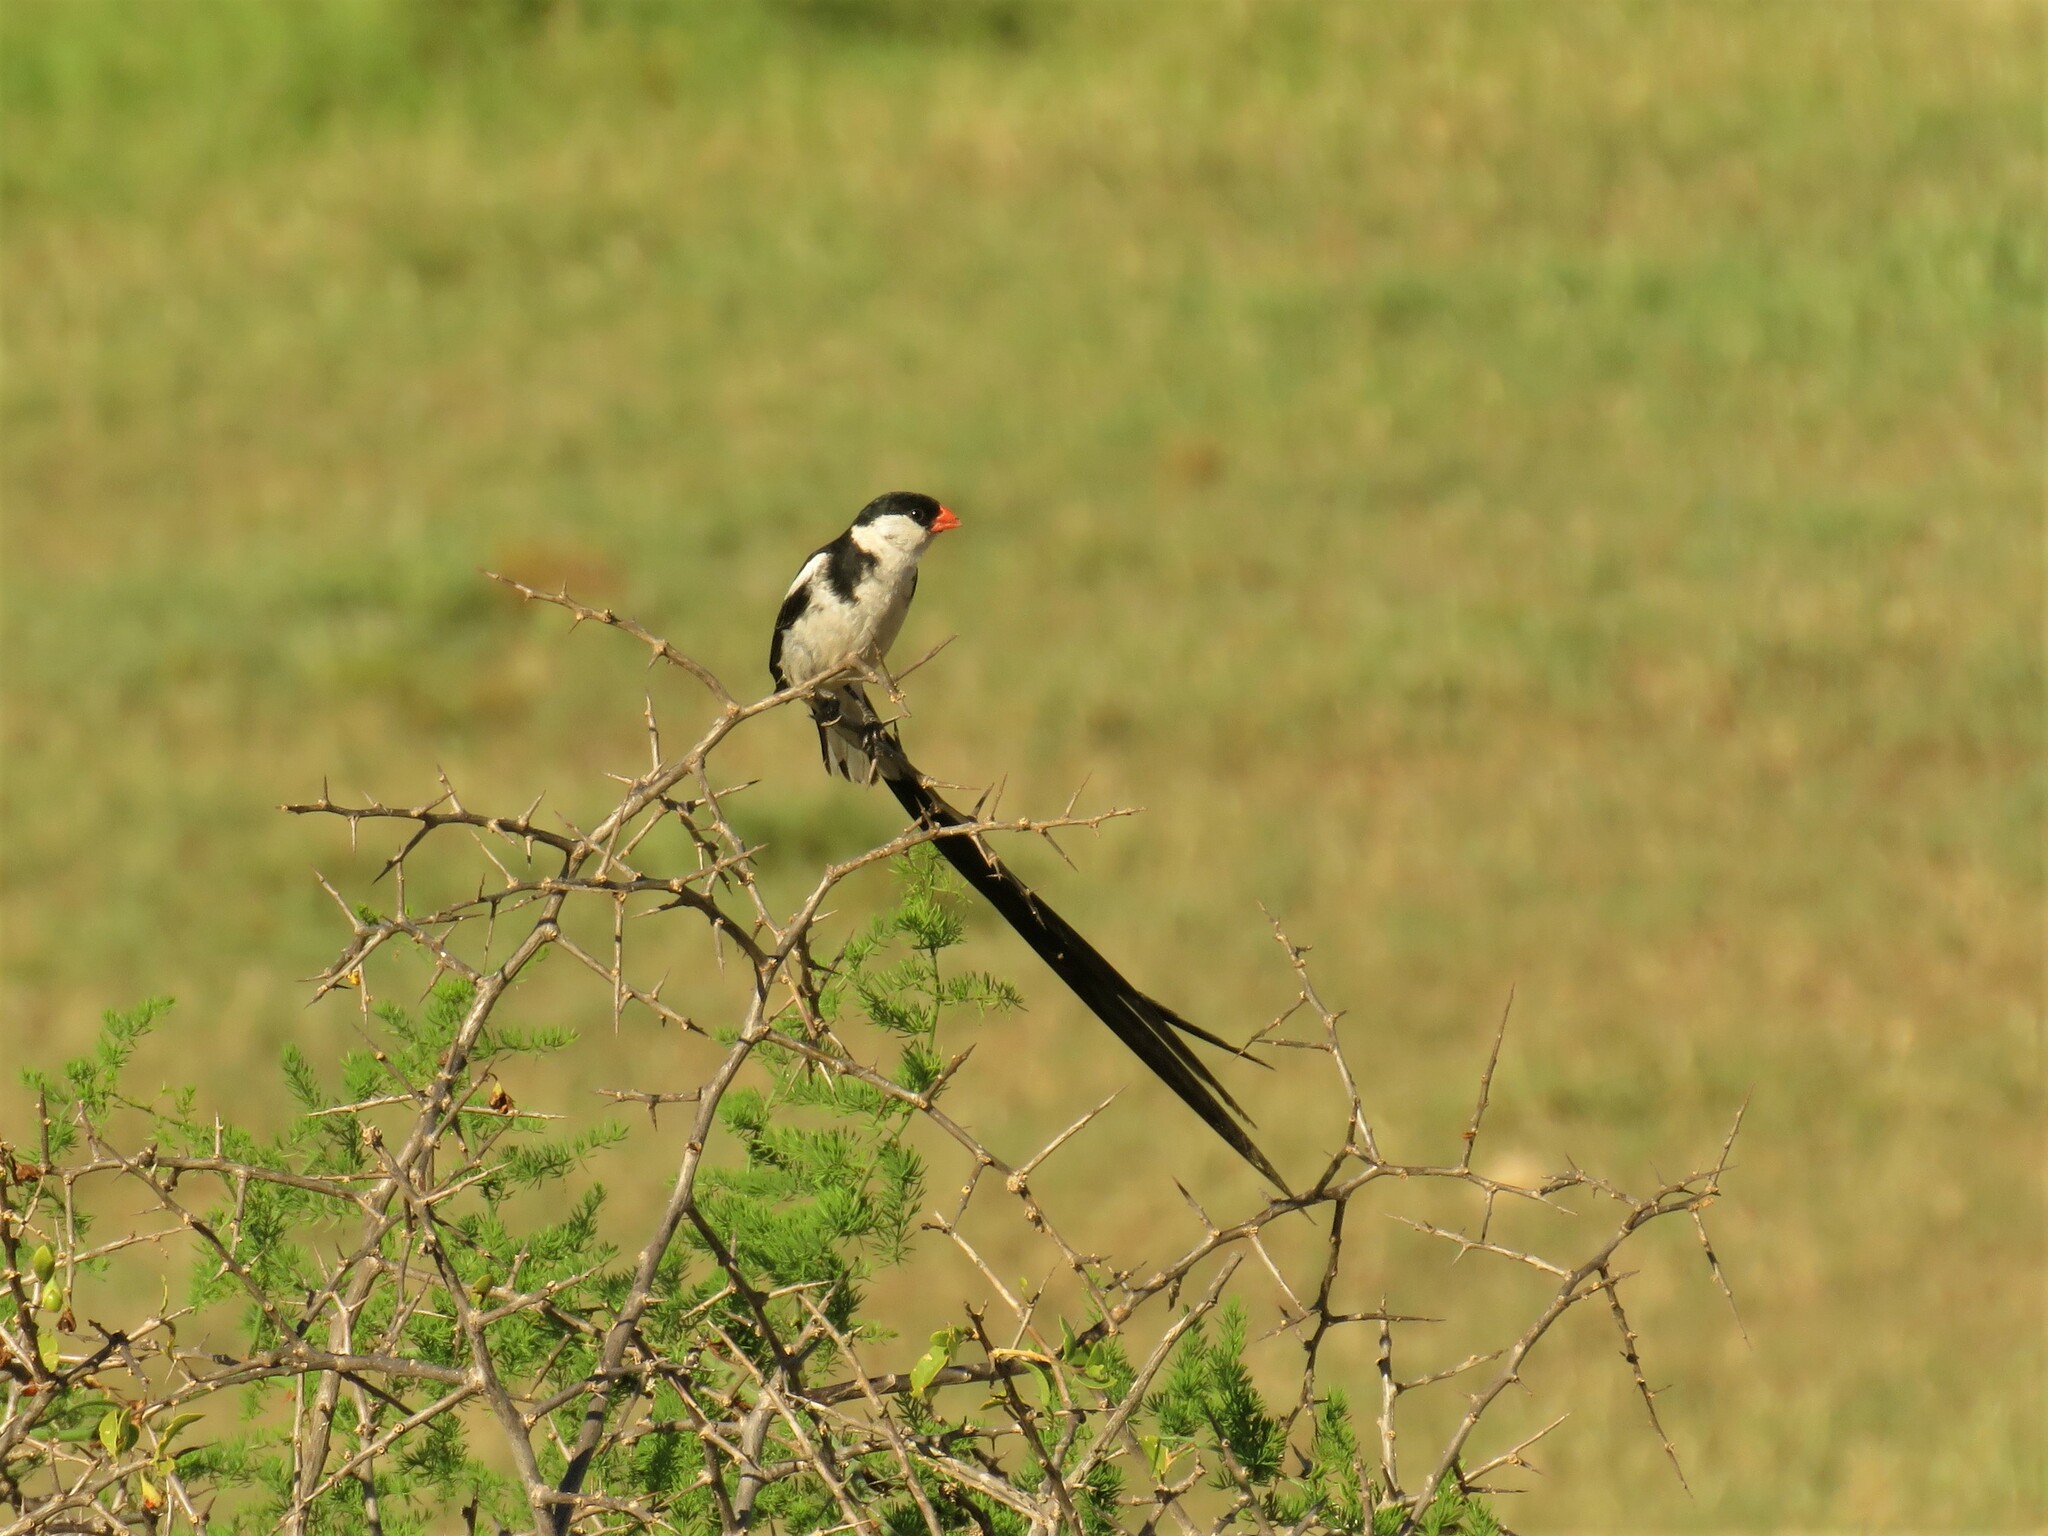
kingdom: Animalia
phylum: Chordata
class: Aves
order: Passeriformes
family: Viduidae
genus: Vidua
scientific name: Vidua macroura
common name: Pin-tailed whydah
